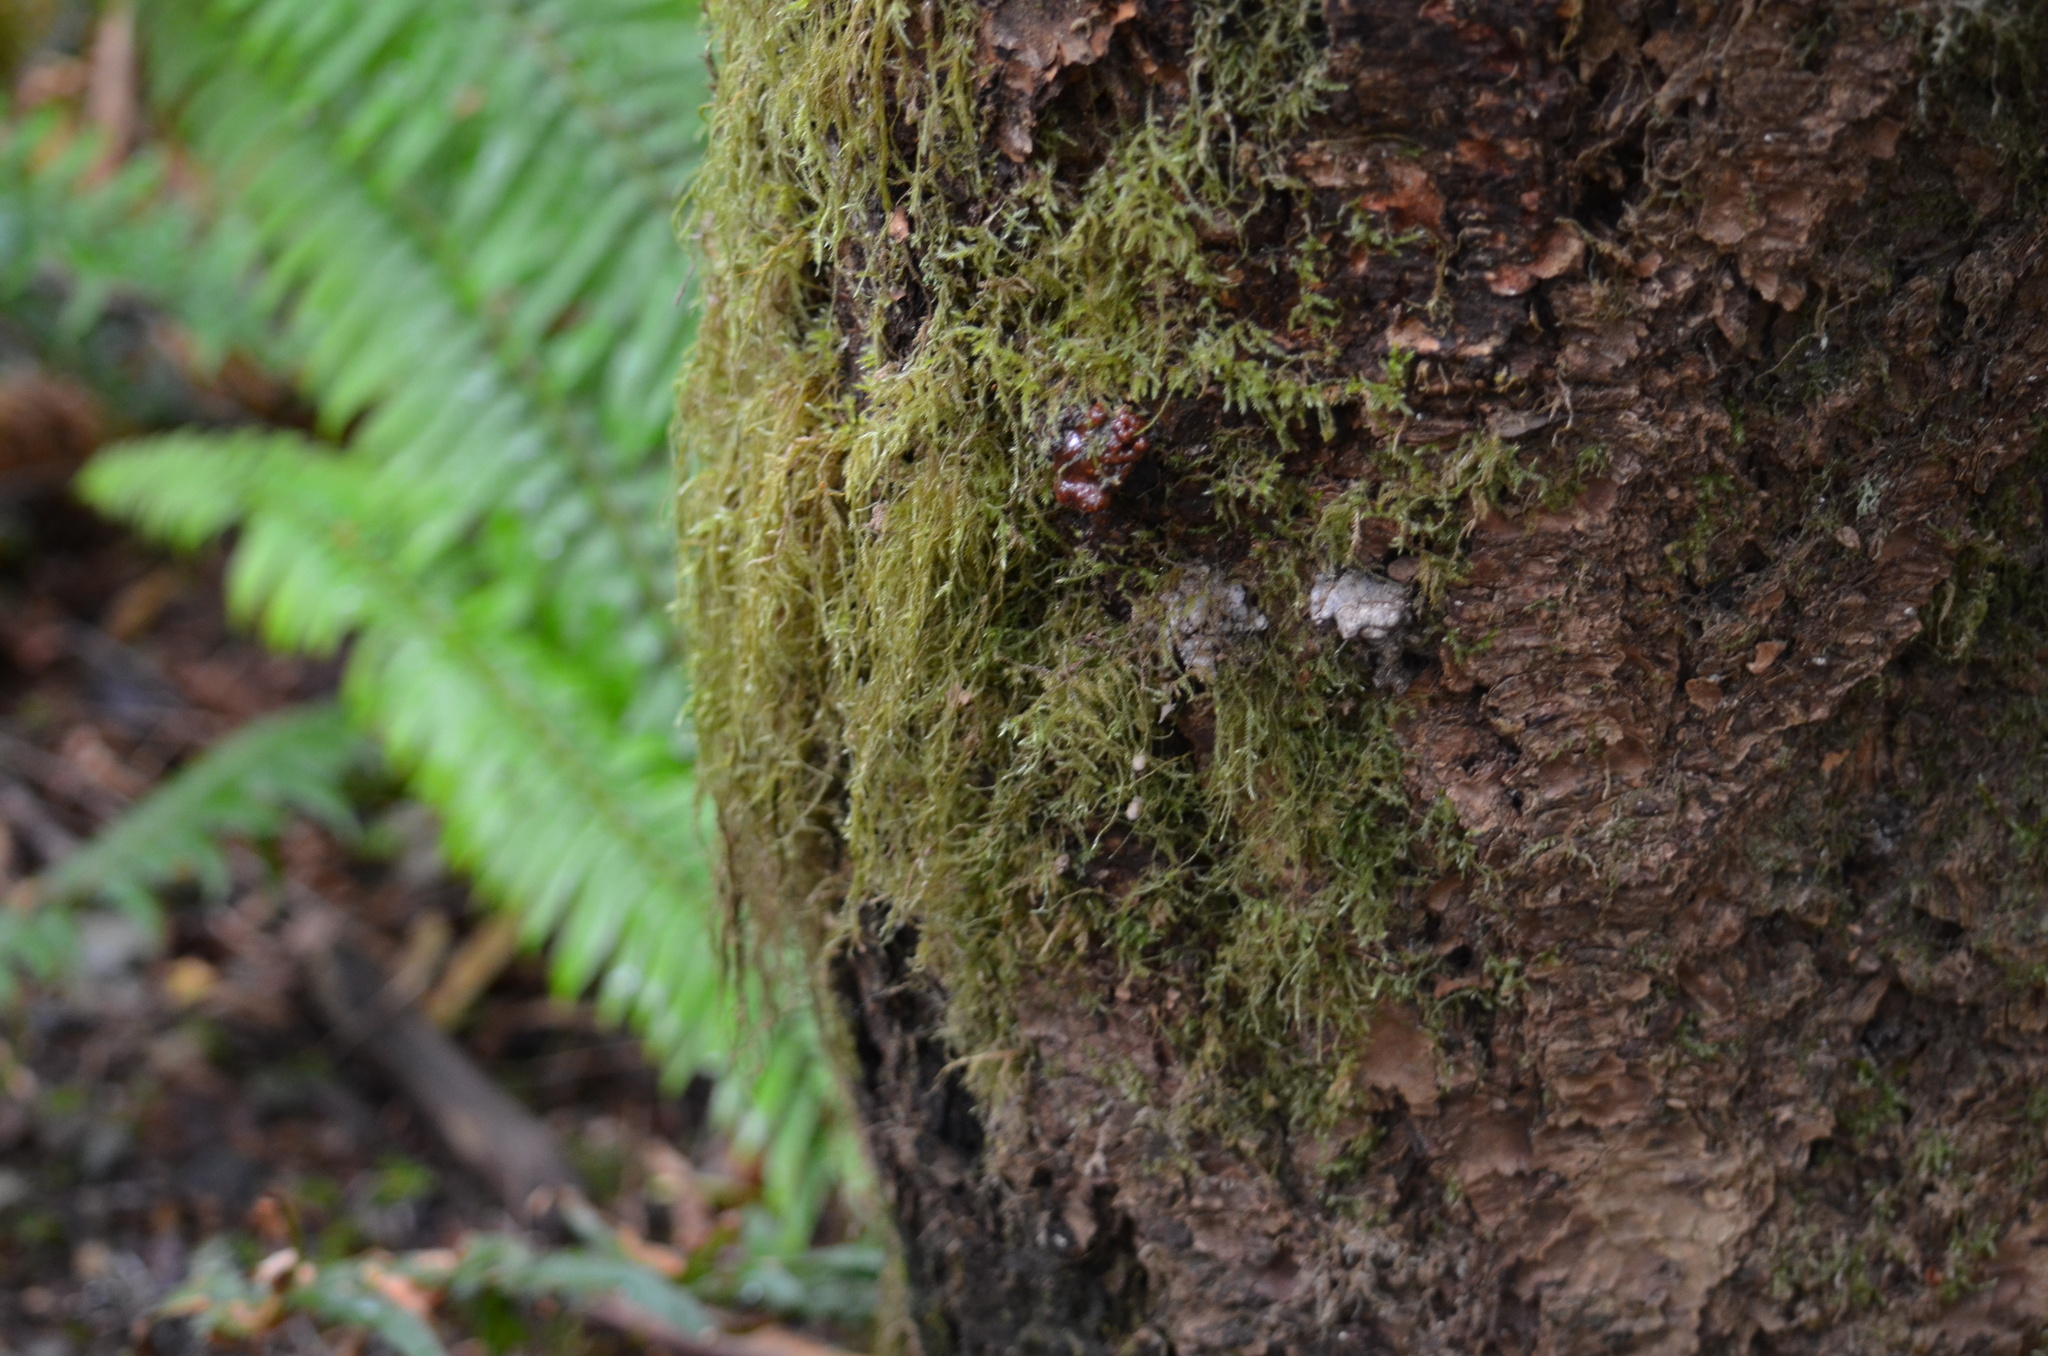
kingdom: Plantae
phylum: Bryophyta
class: Bryopsida
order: Hypnales
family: Lembophyllaceae
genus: Pseudisothecium
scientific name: Pseudisothecium stoloniferum
